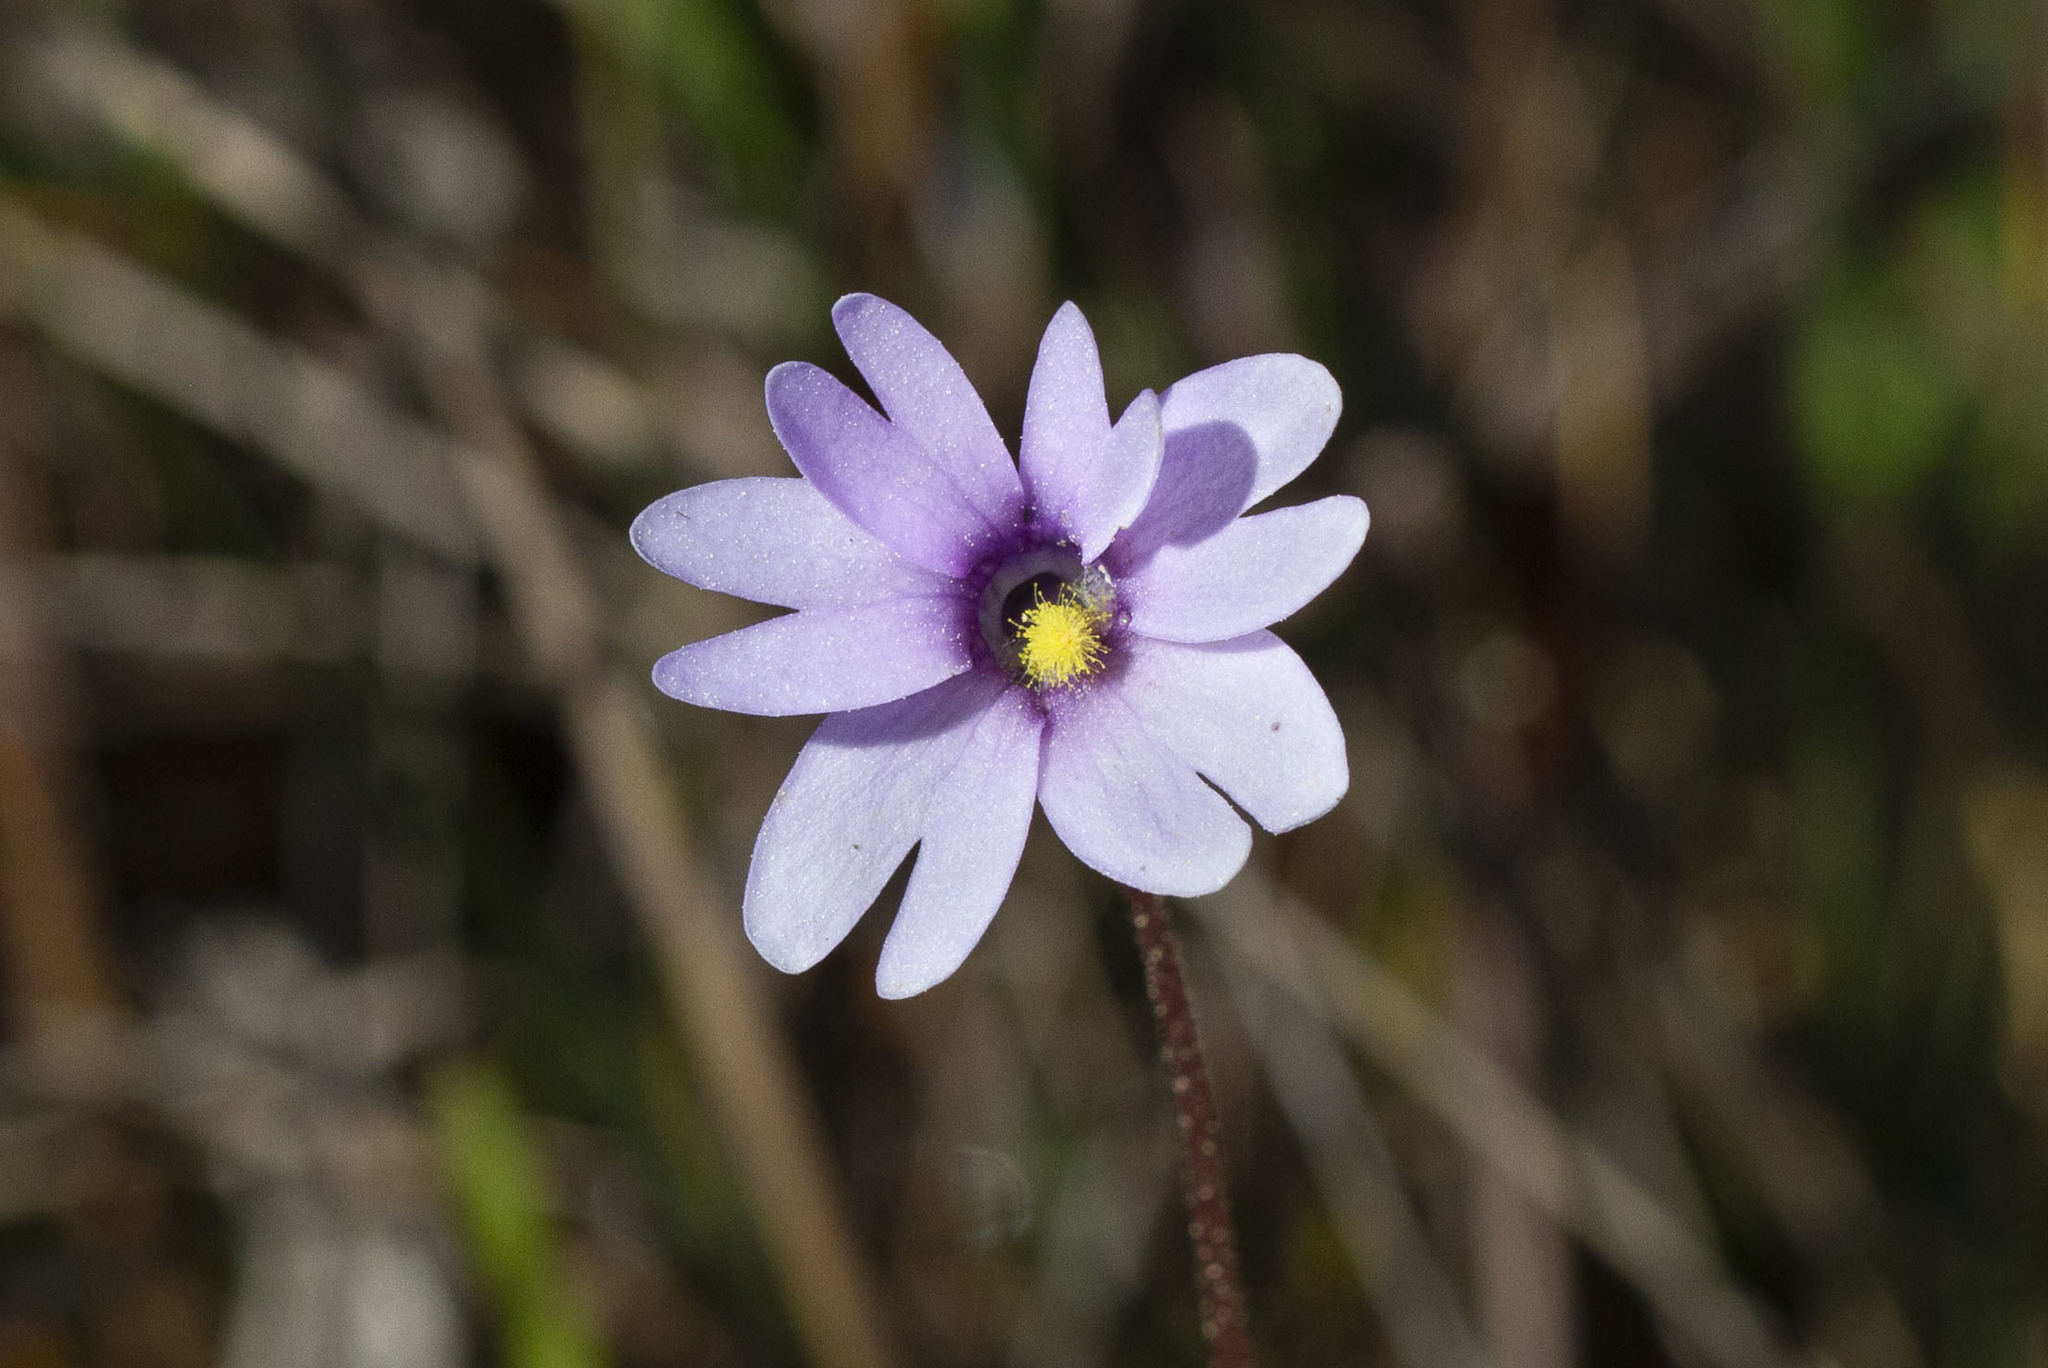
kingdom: Plantae
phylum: Tracheophyta
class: Magnoliopsida
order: Lamiales
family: Lentibulariaceae
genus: Pinguicula
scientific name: Pinguicula ionantha
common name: Godfrey's butterwort
